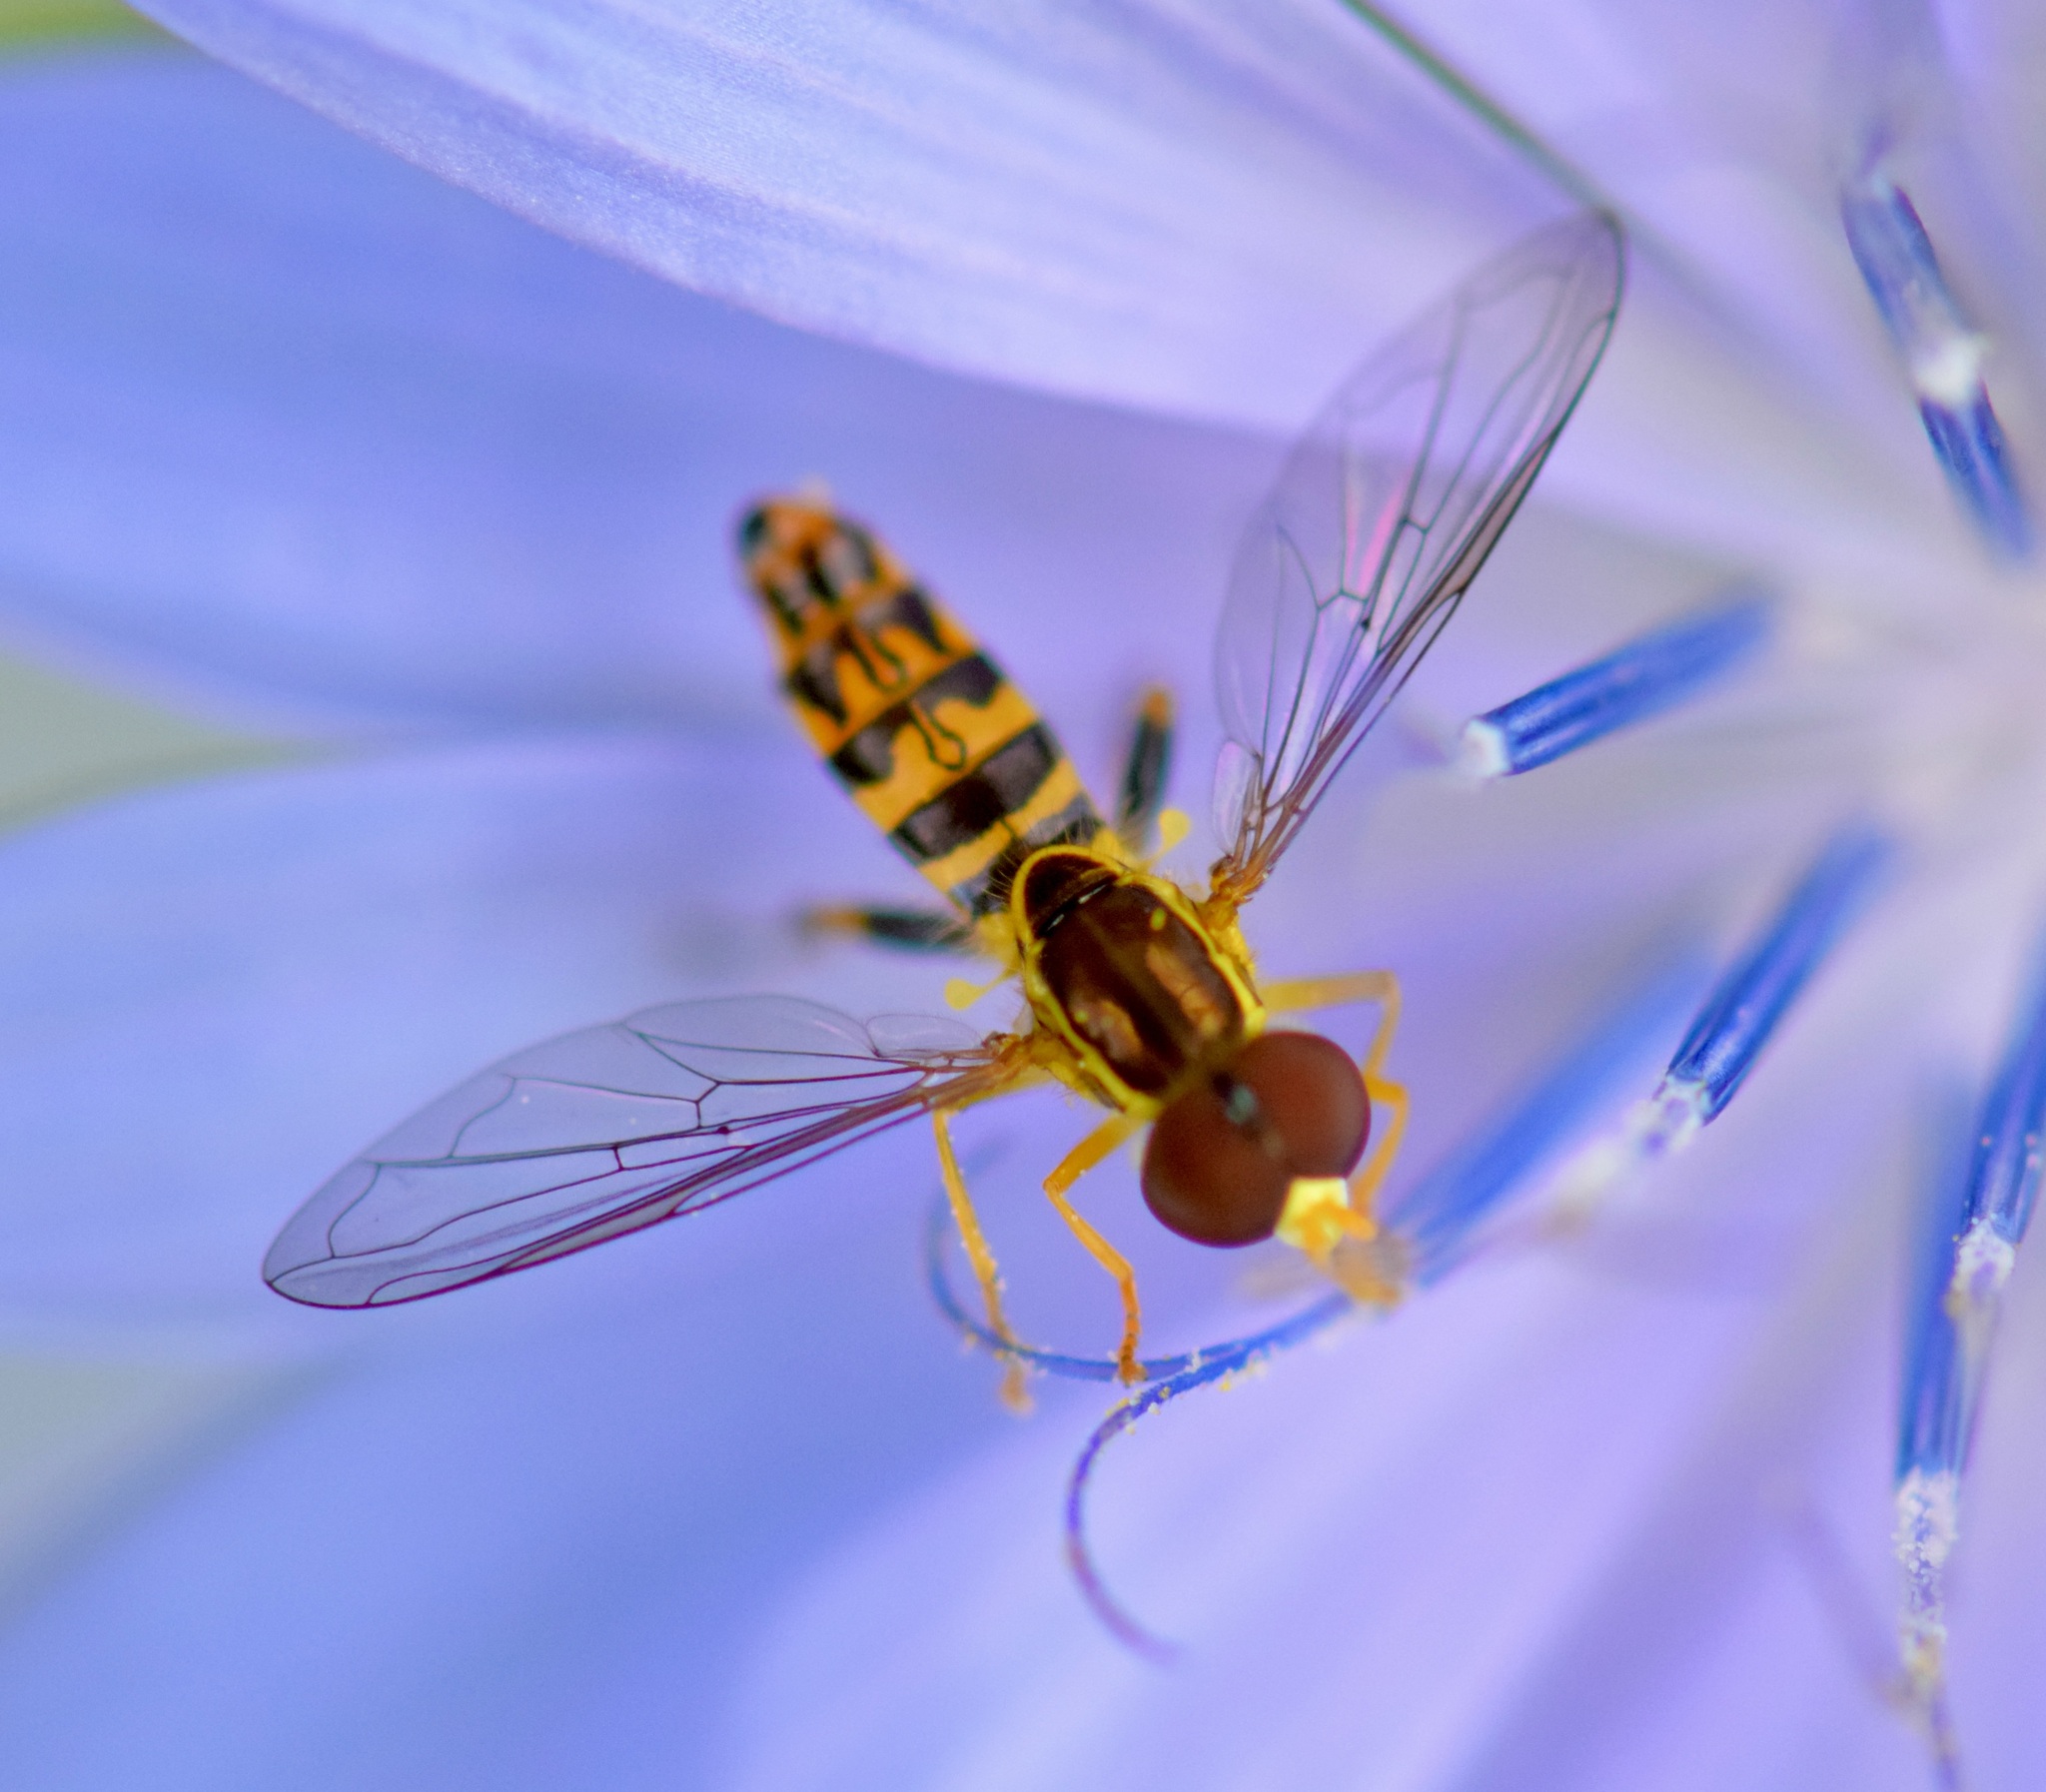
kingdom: Animalia
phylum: Arthropoda
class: Insecta
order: Diptera
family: Syrphidae
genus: Toxomerus
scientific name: Toxomerus geminatus
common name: Eastern calligrapher
